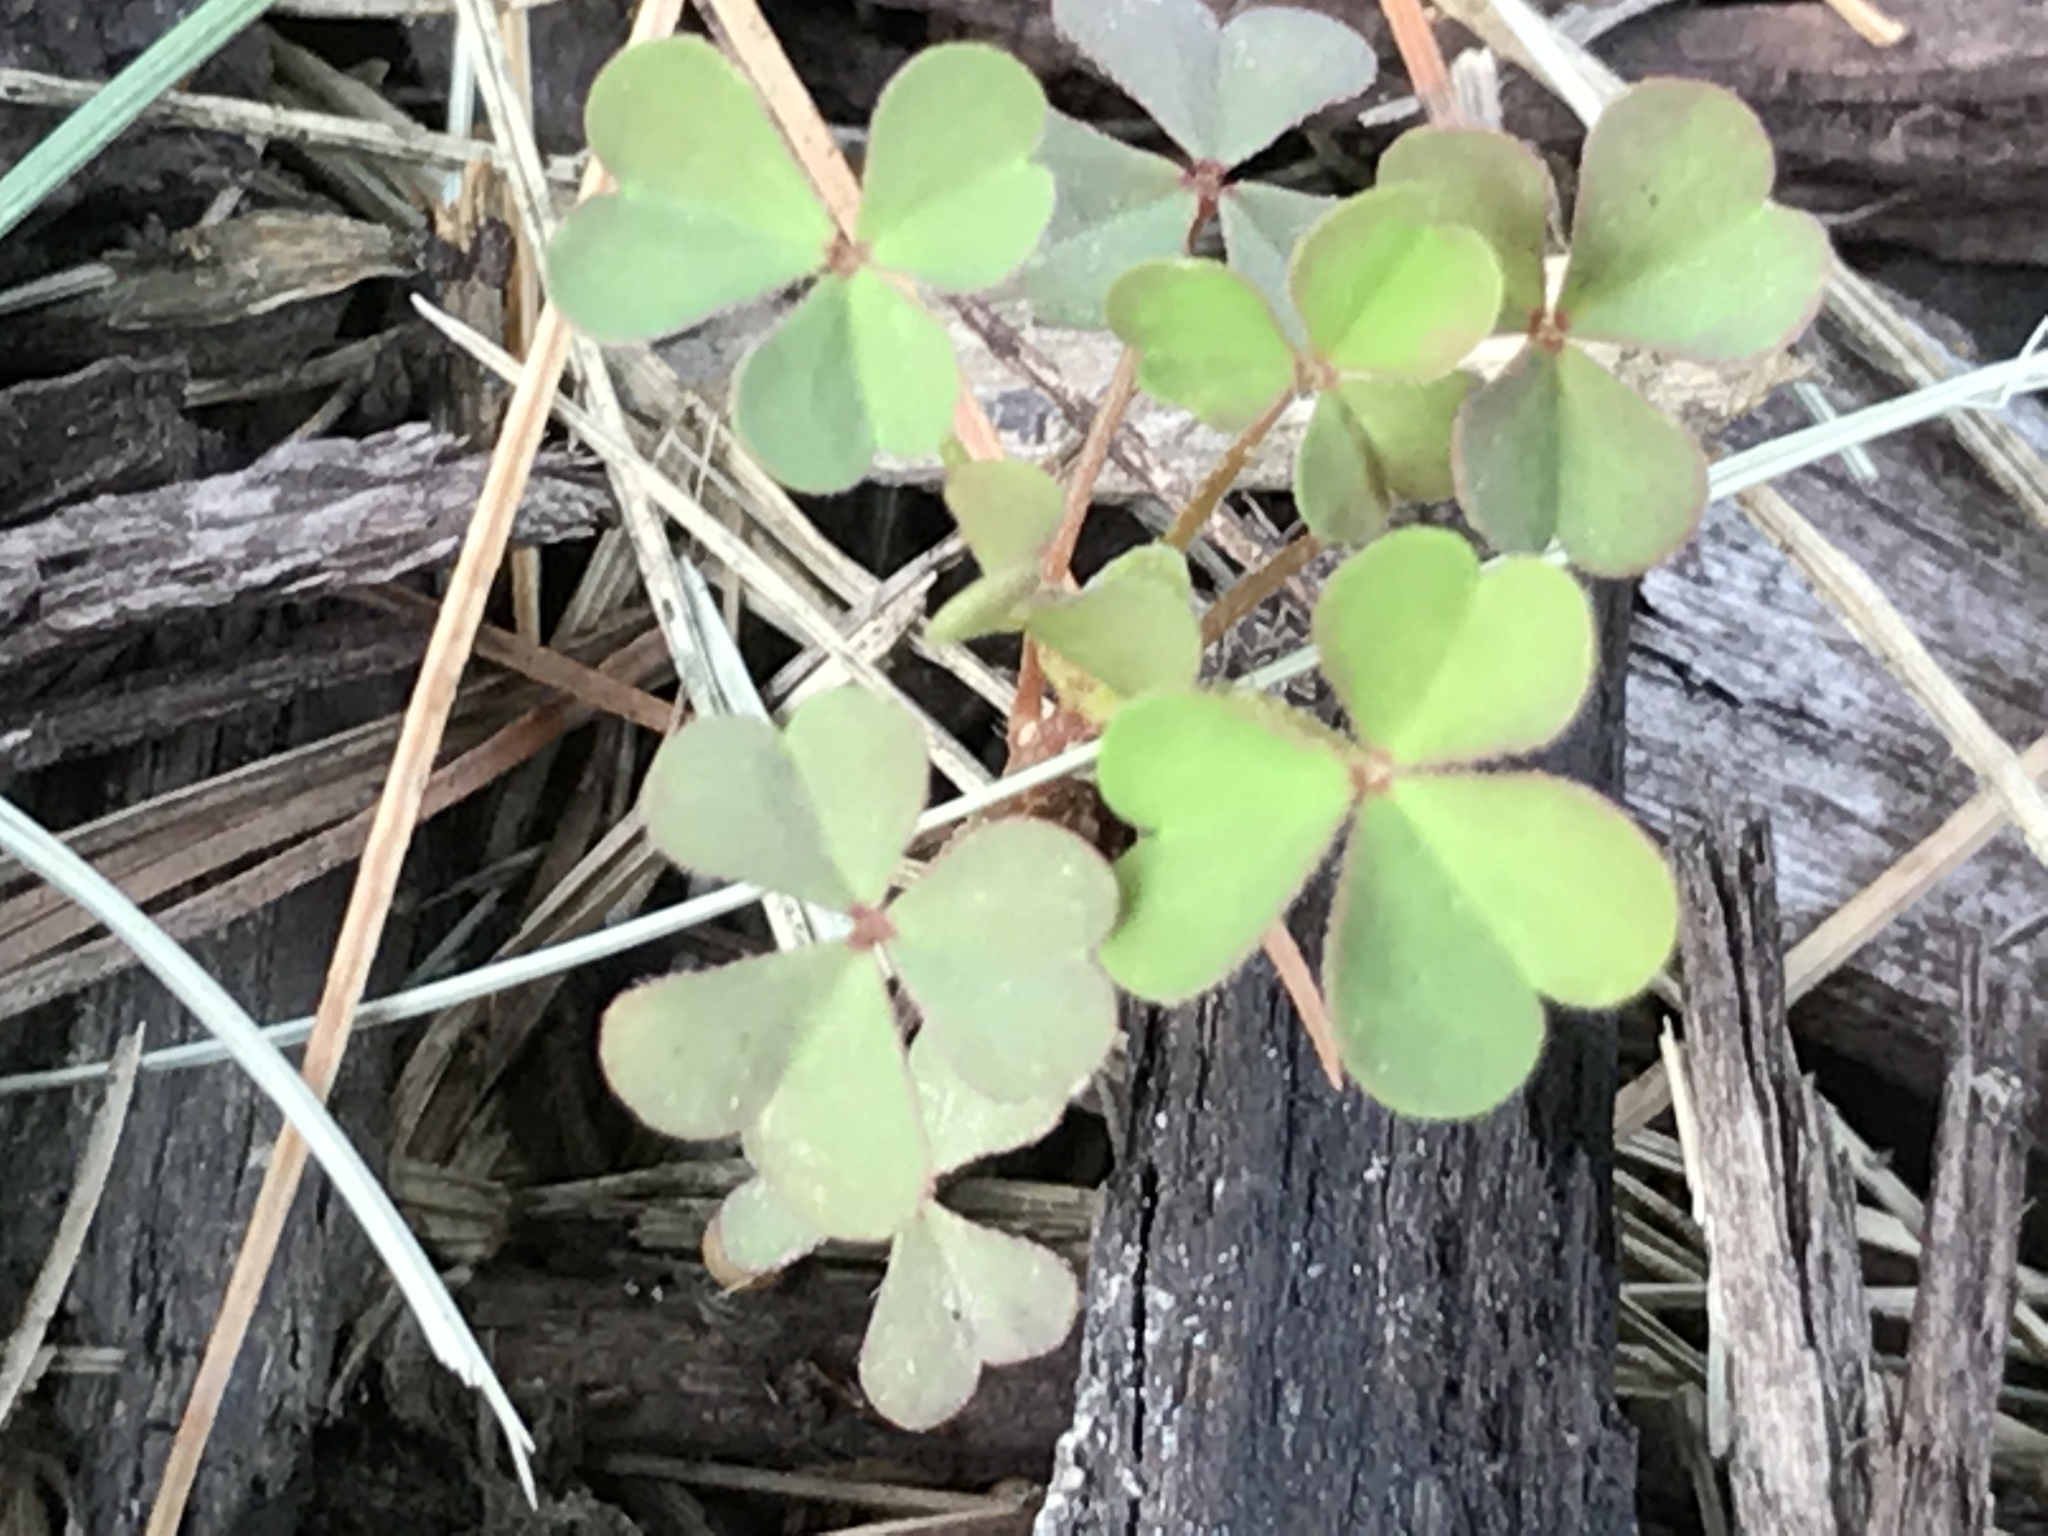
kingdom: Plantae
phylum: Tracheophyta
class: Magnoliopsida
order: Oxalidales
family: Oxalidaceae
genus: Oxalis
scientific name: Oxalis corniculata
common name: Procumbent yellow-sorrel
